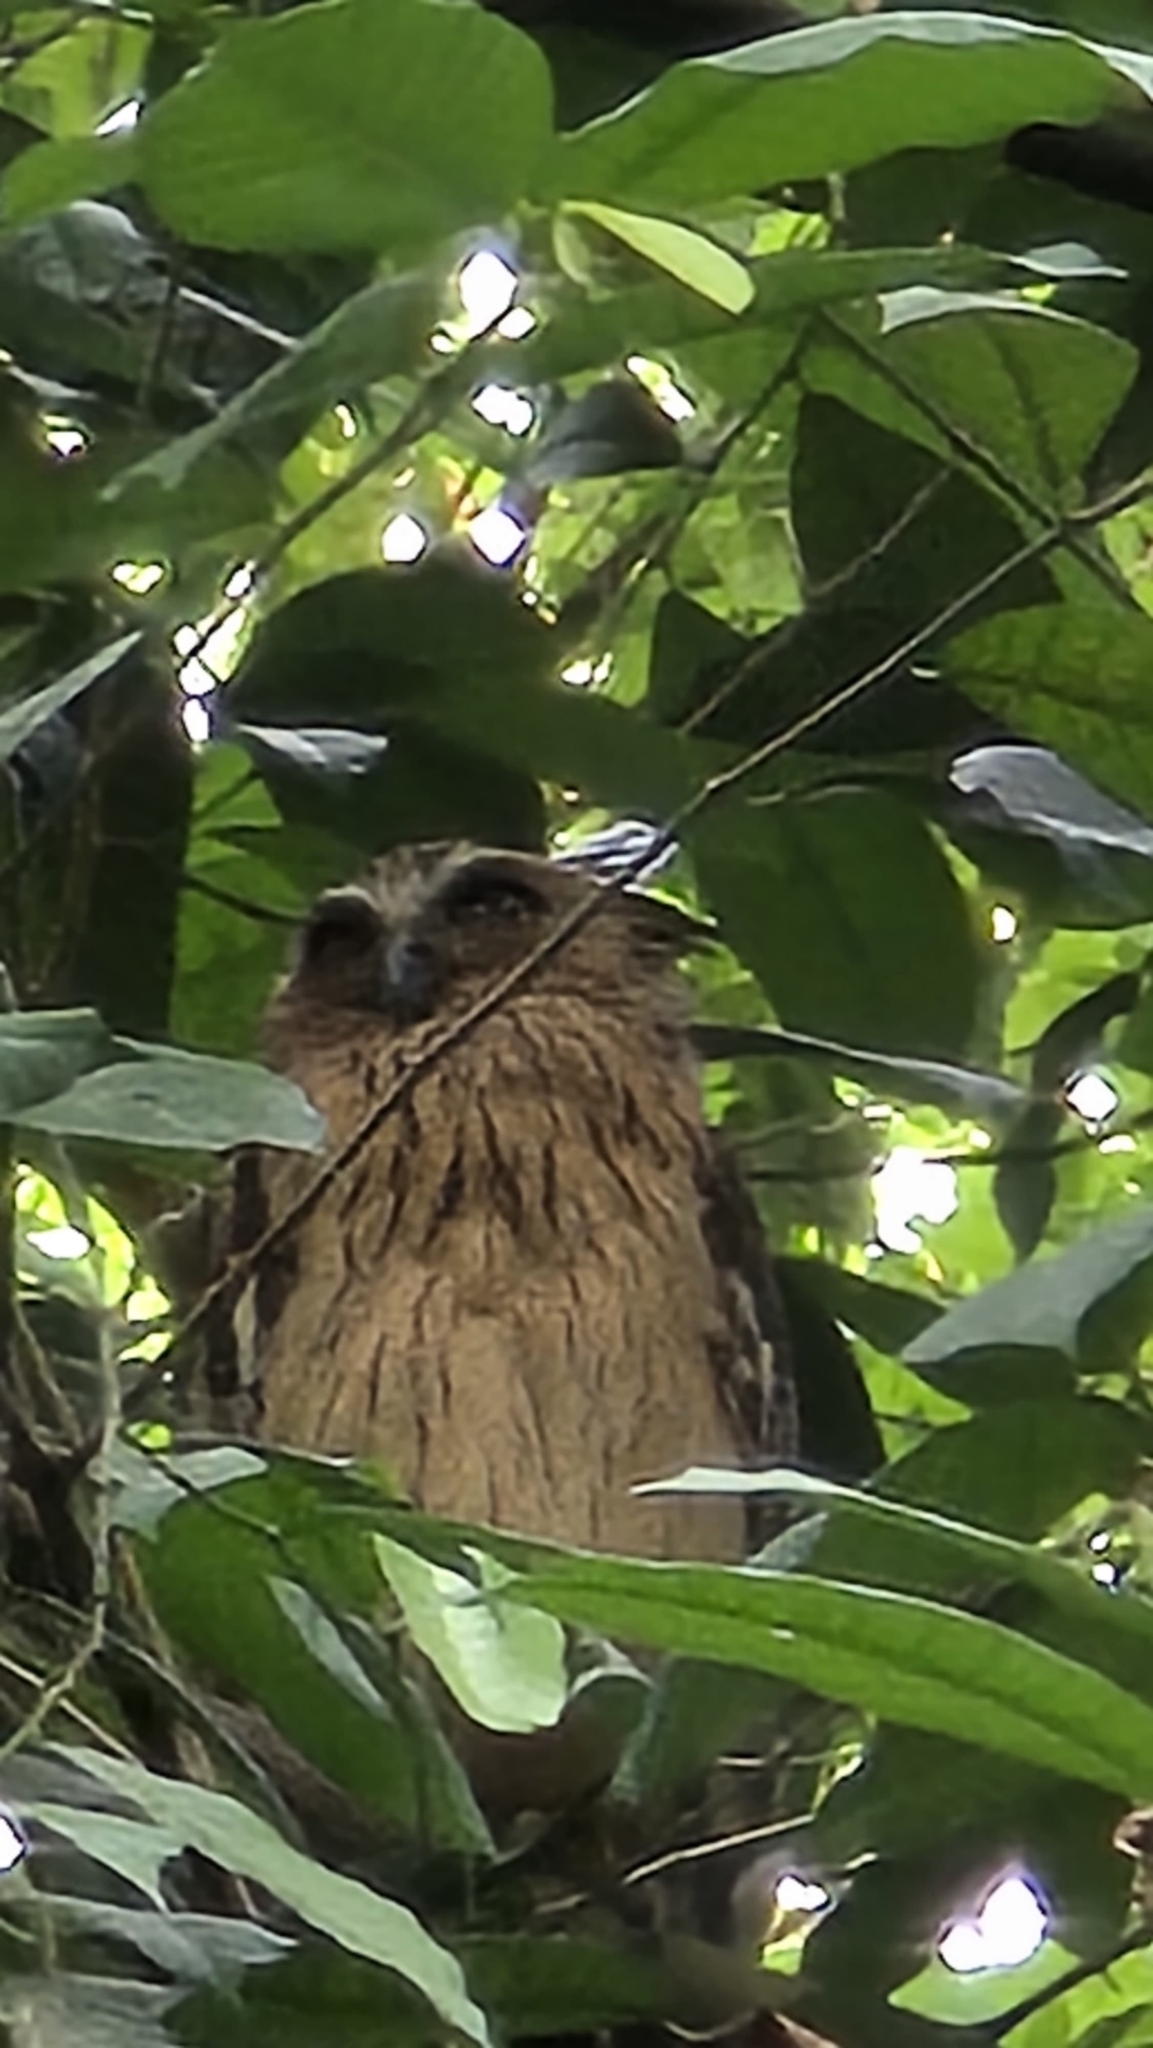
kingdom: Animalia
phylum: Chordata
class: Aves
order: Strigiformes
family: Strigidae
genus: Ketupa
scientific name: Ketupa ketupu
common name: Buffy fish-owl
